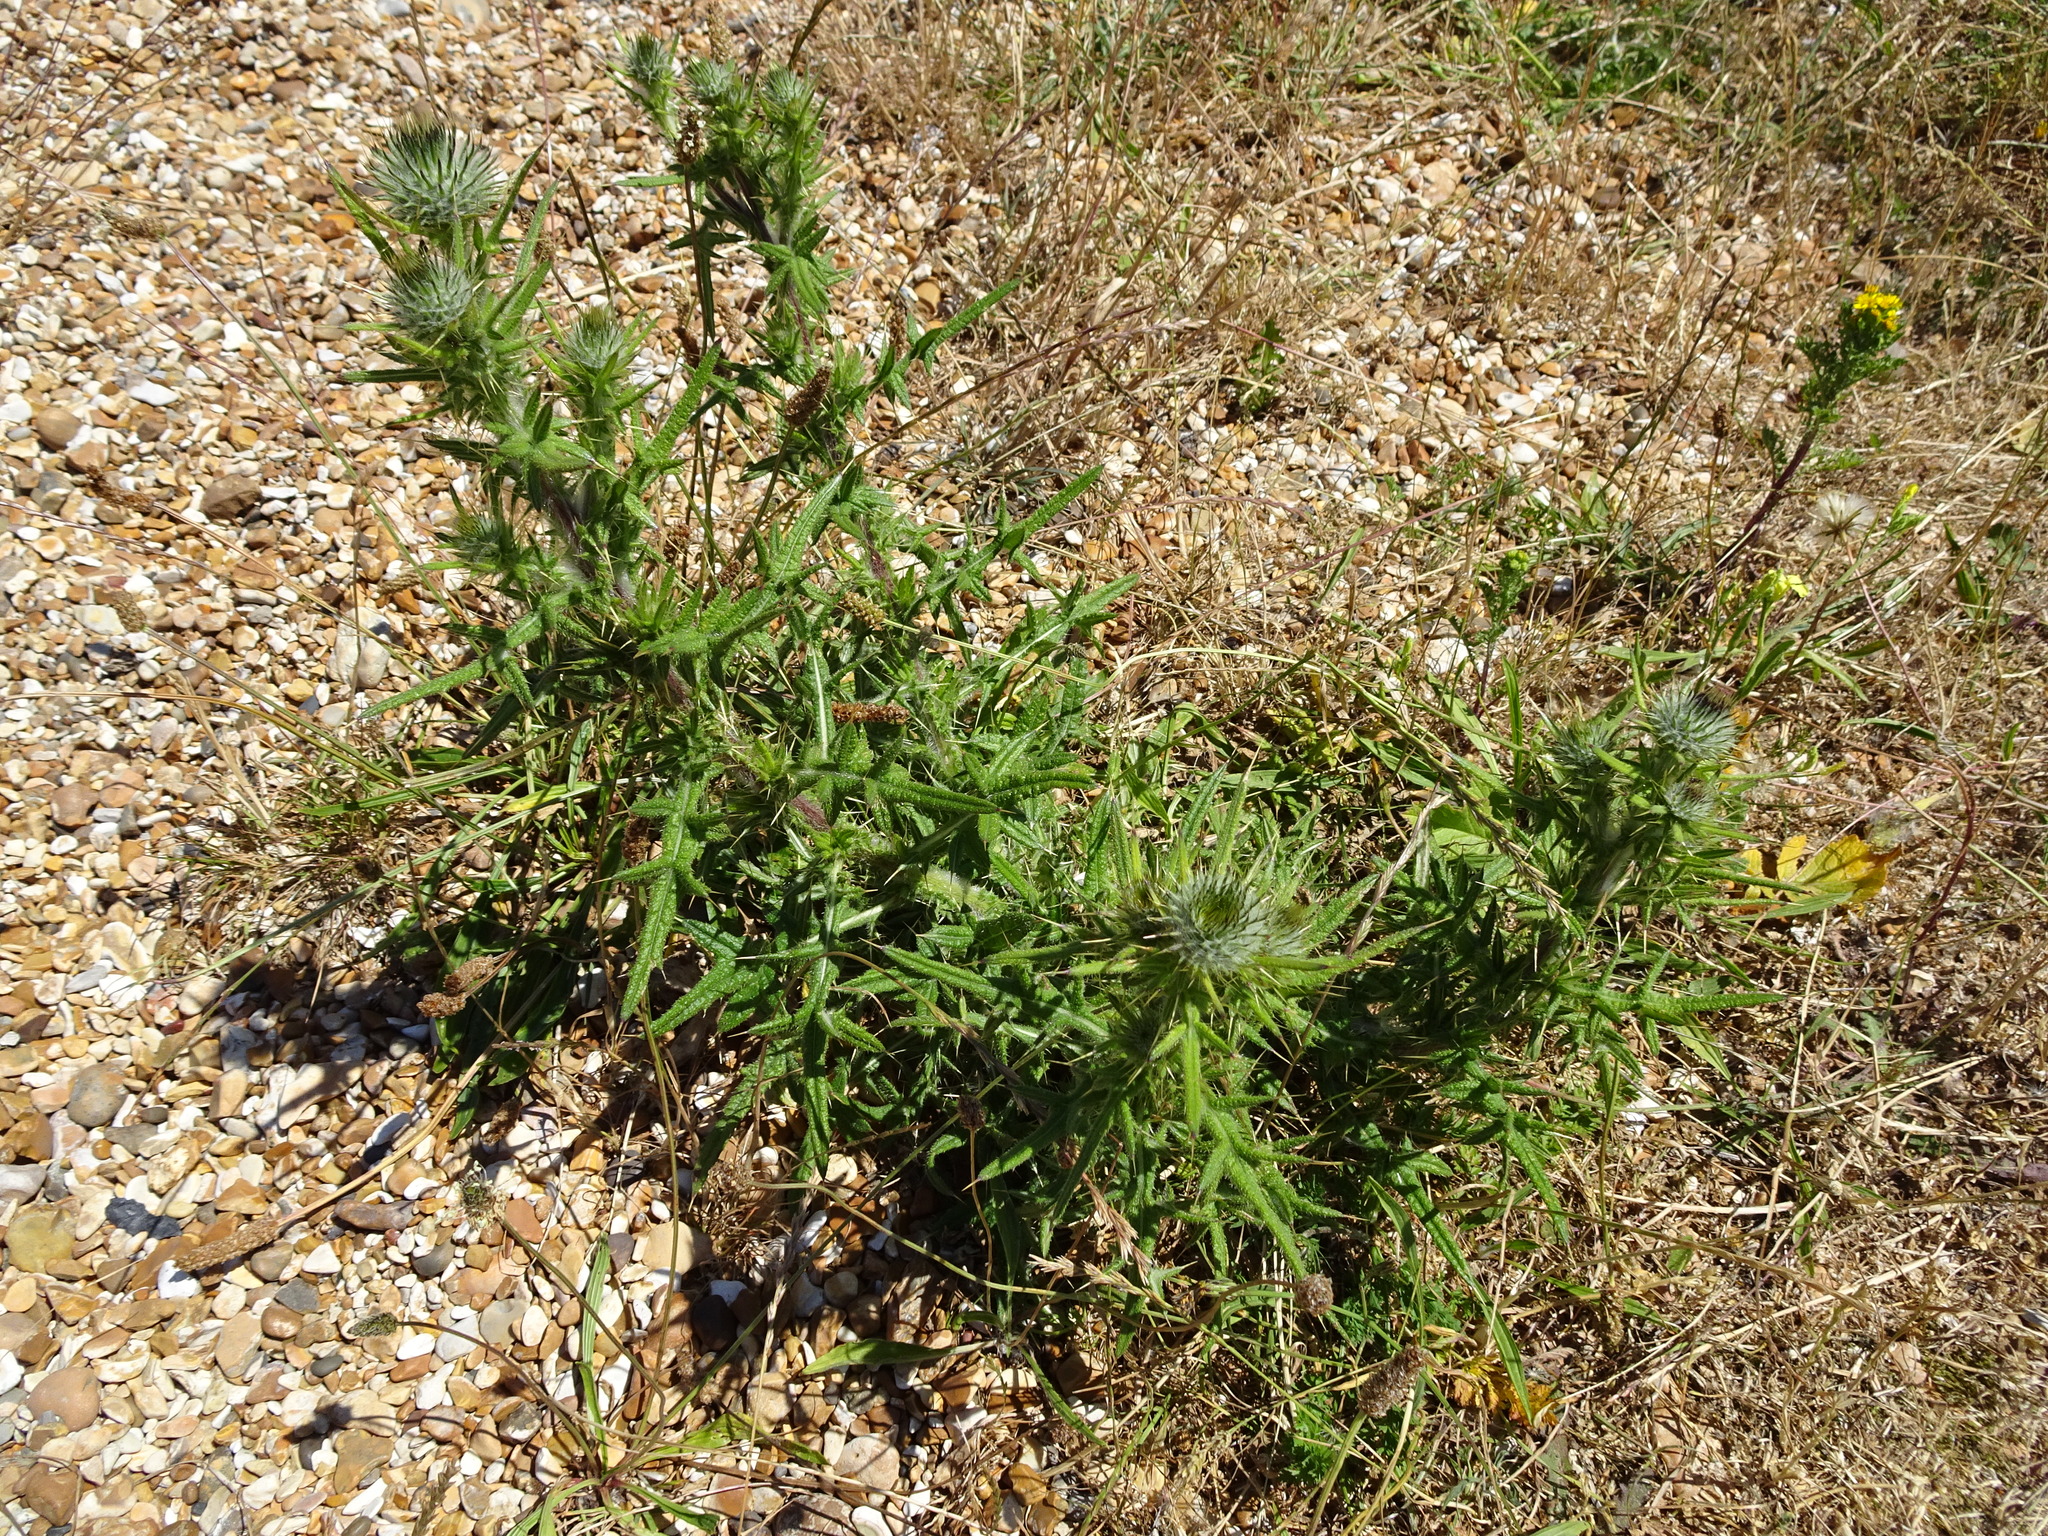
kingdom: Plantae
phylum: Tracheophyta
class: Magnoliopsida
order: Asterales
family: Asteraceae
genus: Cirsium
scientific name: Cirsium vulgare
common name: Bull thistle
